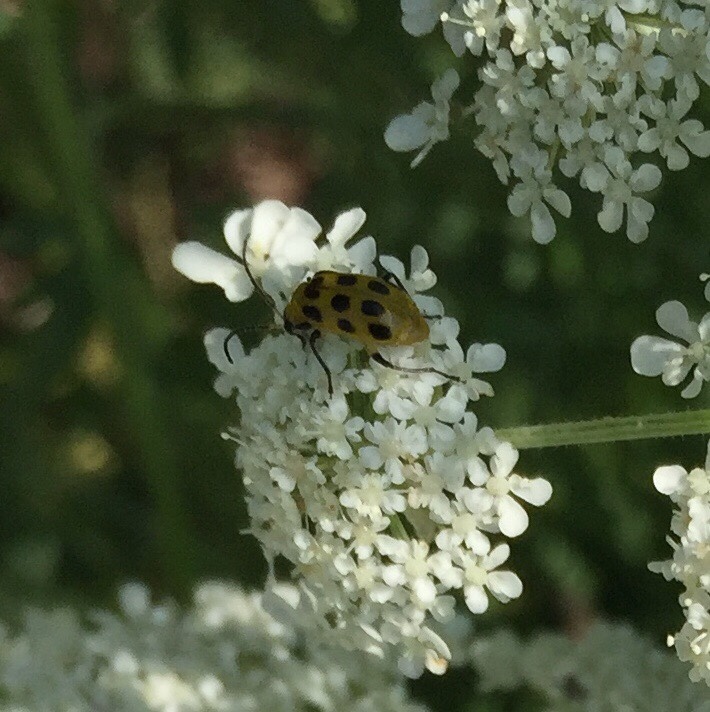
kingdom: Animalia
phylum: Arthropoda
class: Insecta
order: Coleoptera
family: Chrysomelidae
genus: Diabrotica
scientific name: Diabrotica undecimpunctata
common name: Spotted cucumber beetle
